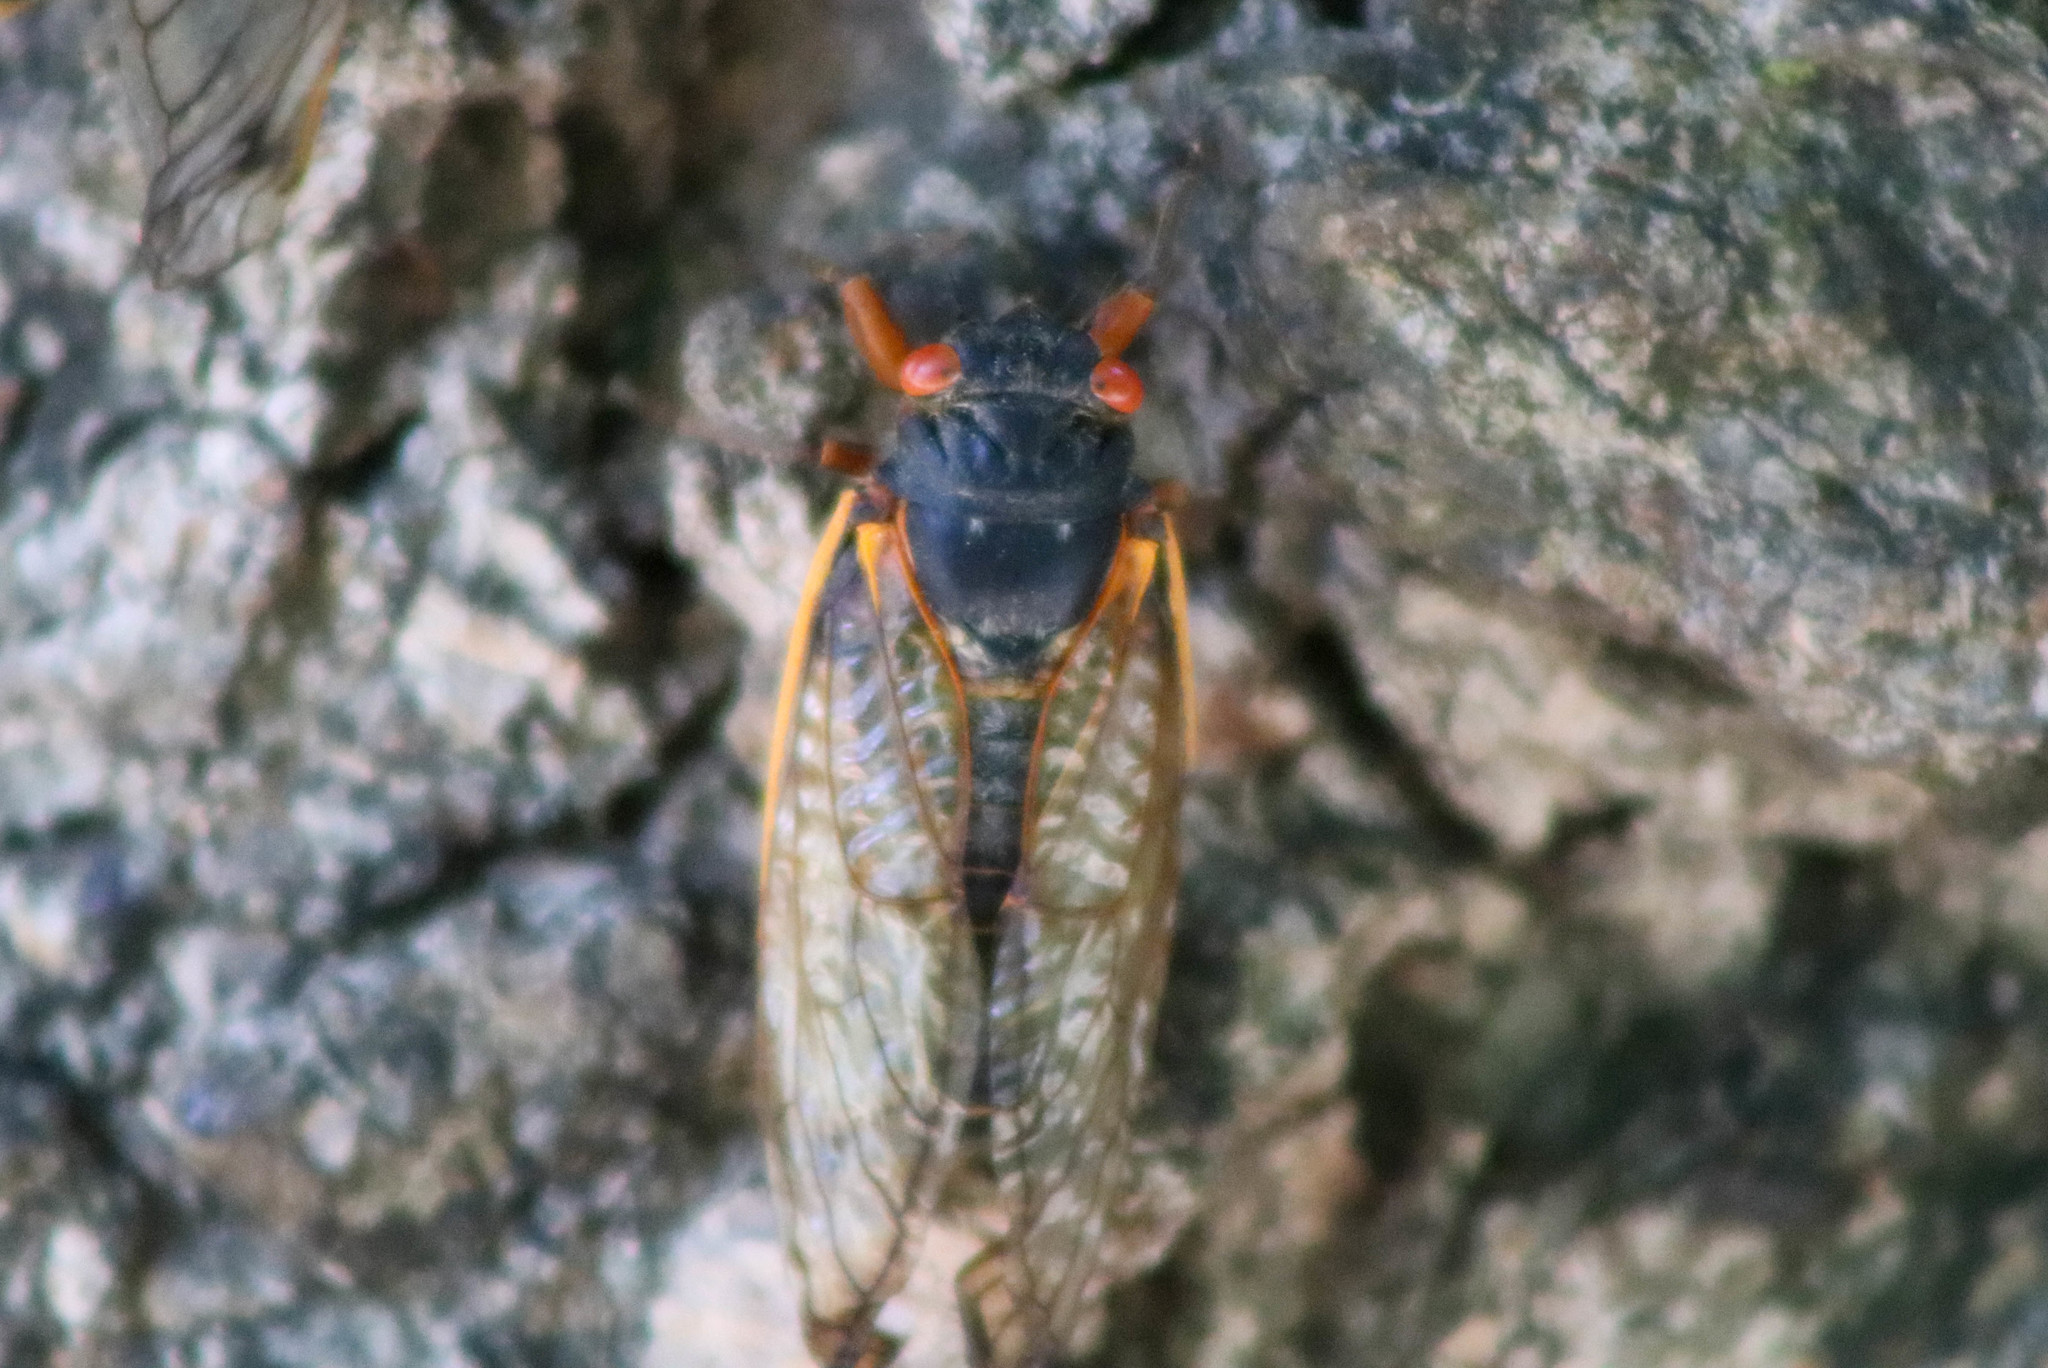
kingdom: Animalia
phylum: Arthropoda
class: Insecta
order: Hemiptera
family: Cicadidae
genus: Magicicada
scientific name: Magicicada
